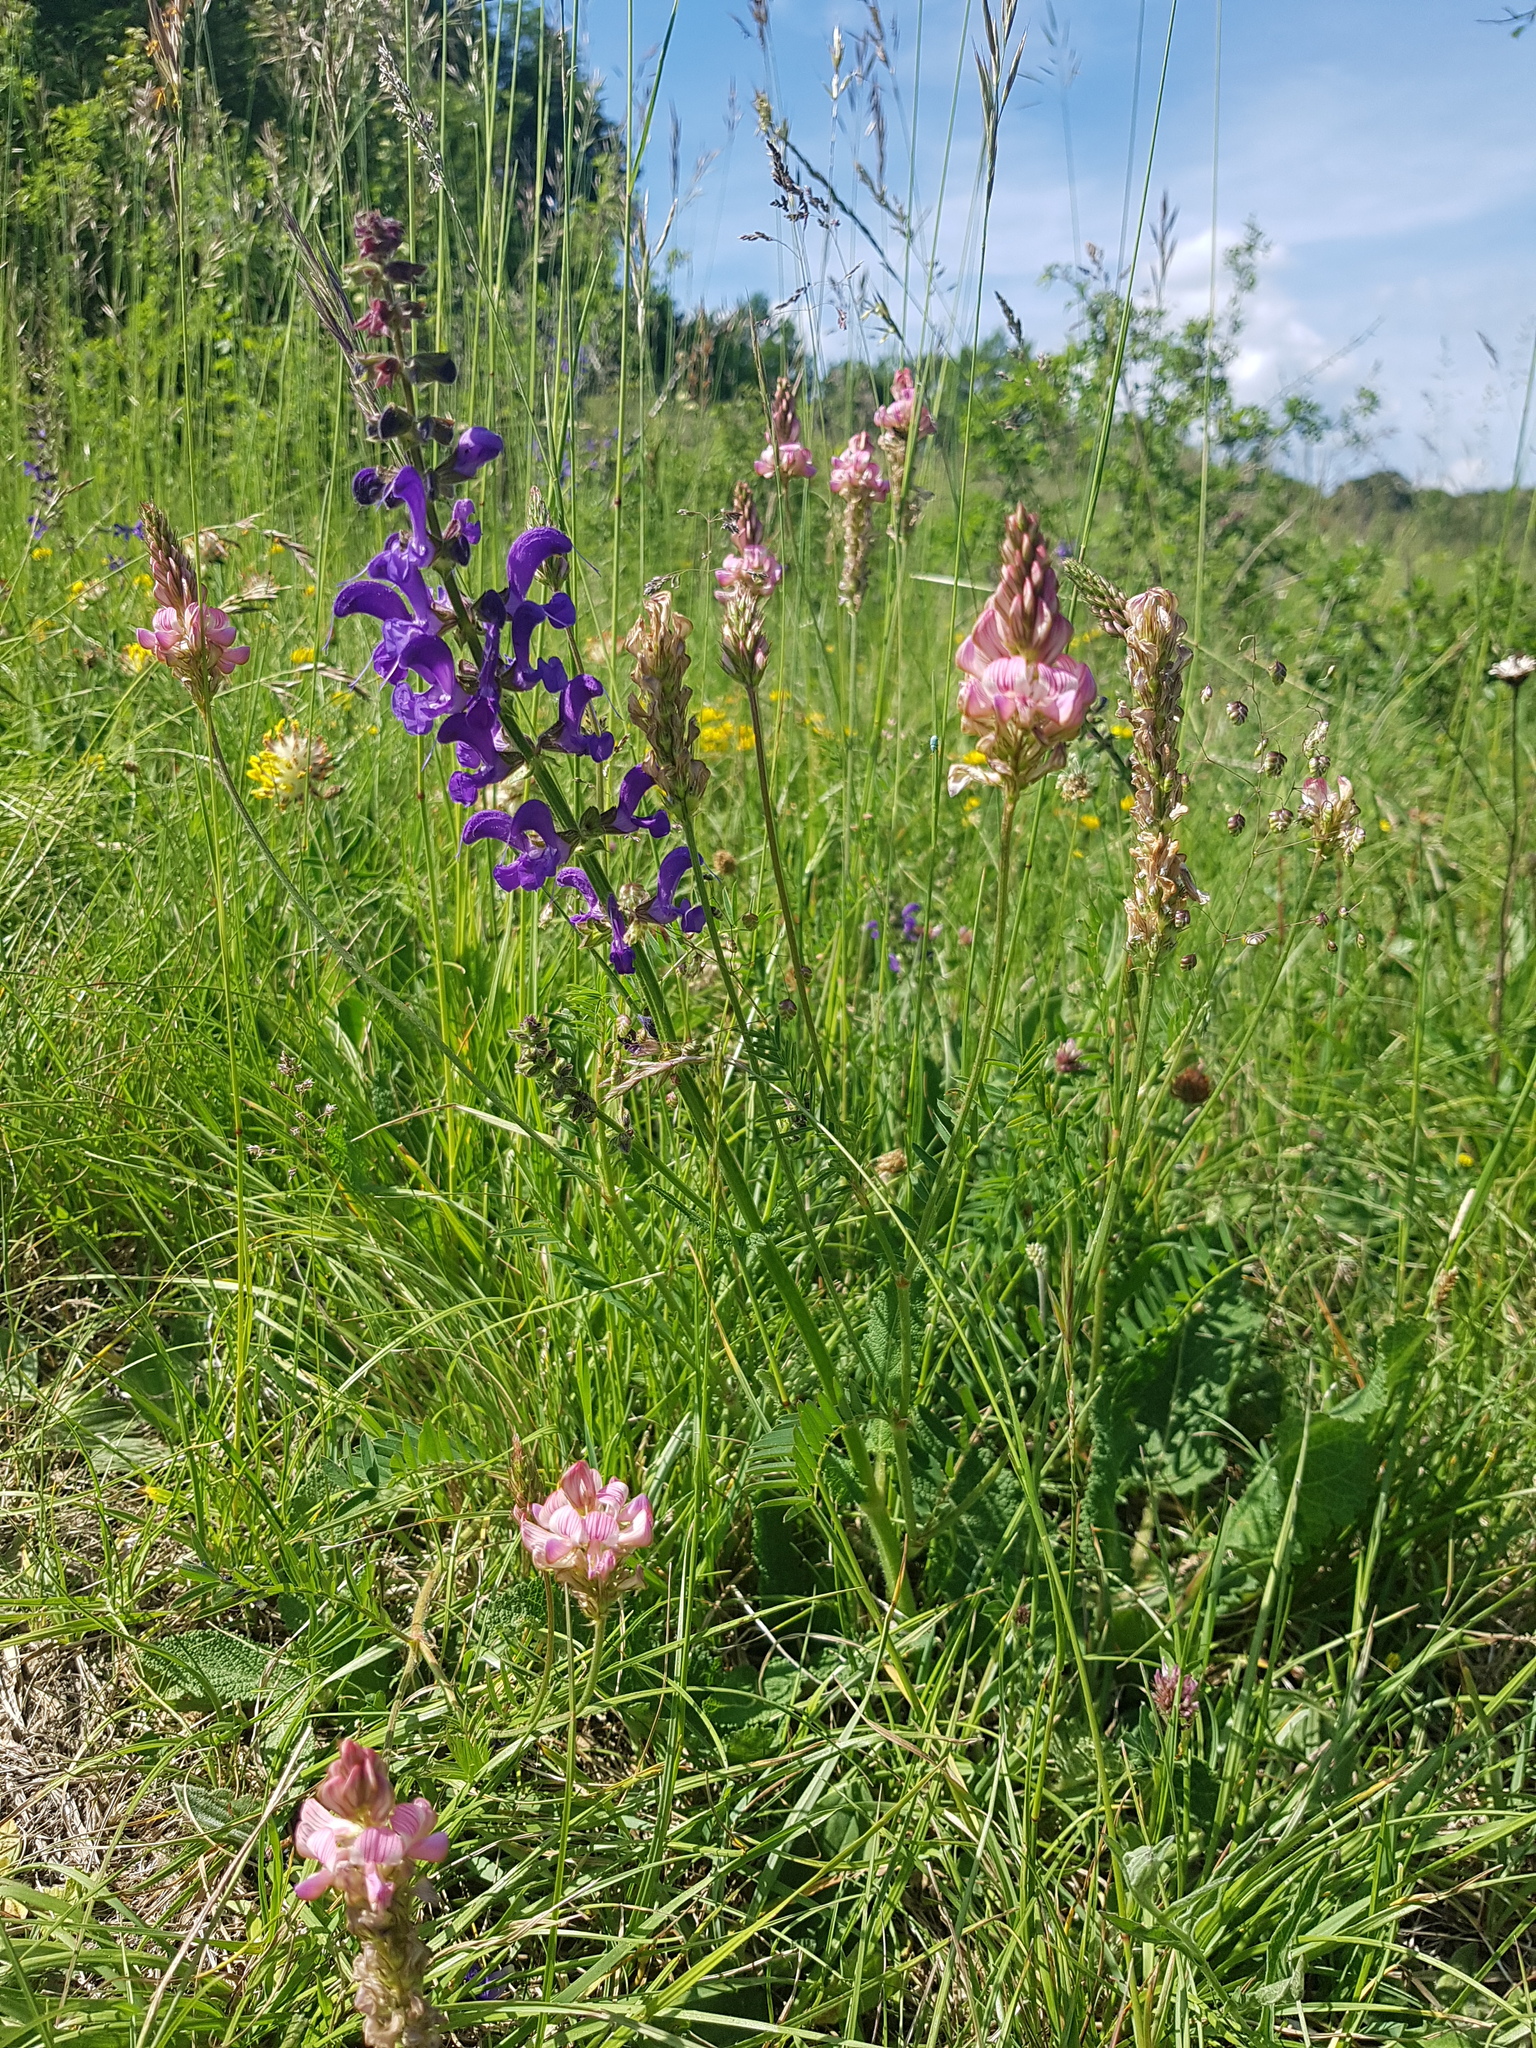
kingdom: Plantae
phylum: Tracheophyta
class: Magnoliopsida
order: Lamiales
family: Lamiaceae
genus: Salvia
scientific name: Salvia pratensis
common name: Meadow sage
